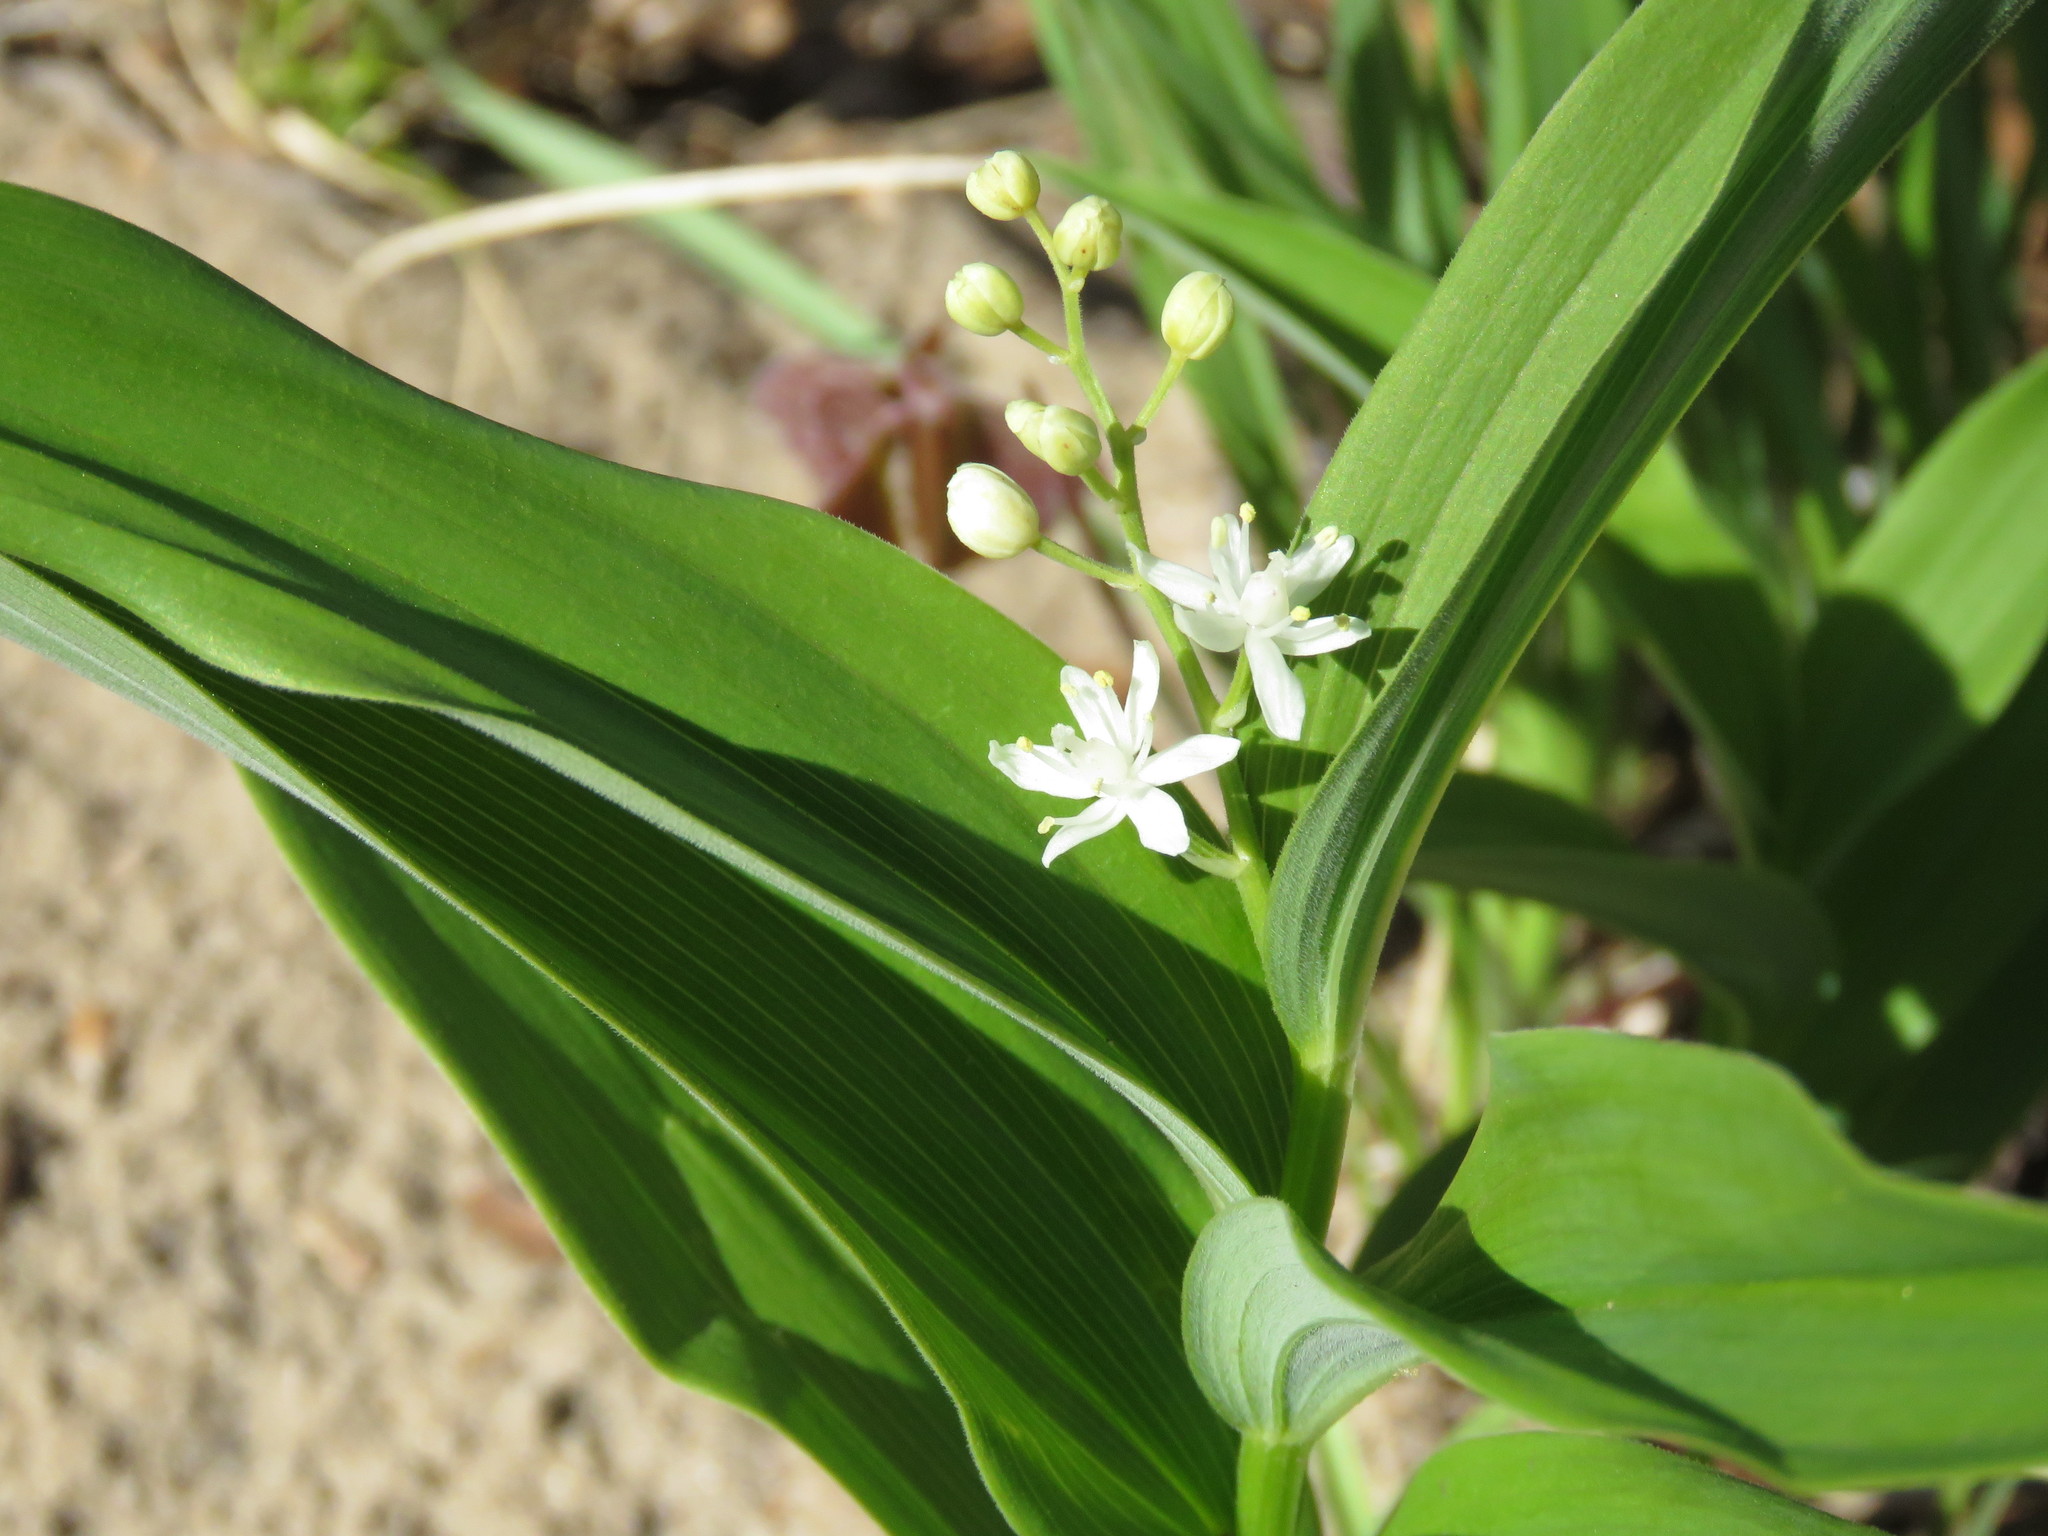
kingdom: Plantae
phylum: Tracheophyta
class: Liliopsida
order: Asparagales
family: Asparagaceae
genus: Maianthemum
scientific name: Maianthemum stellatum
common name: Little false solomon's seal
